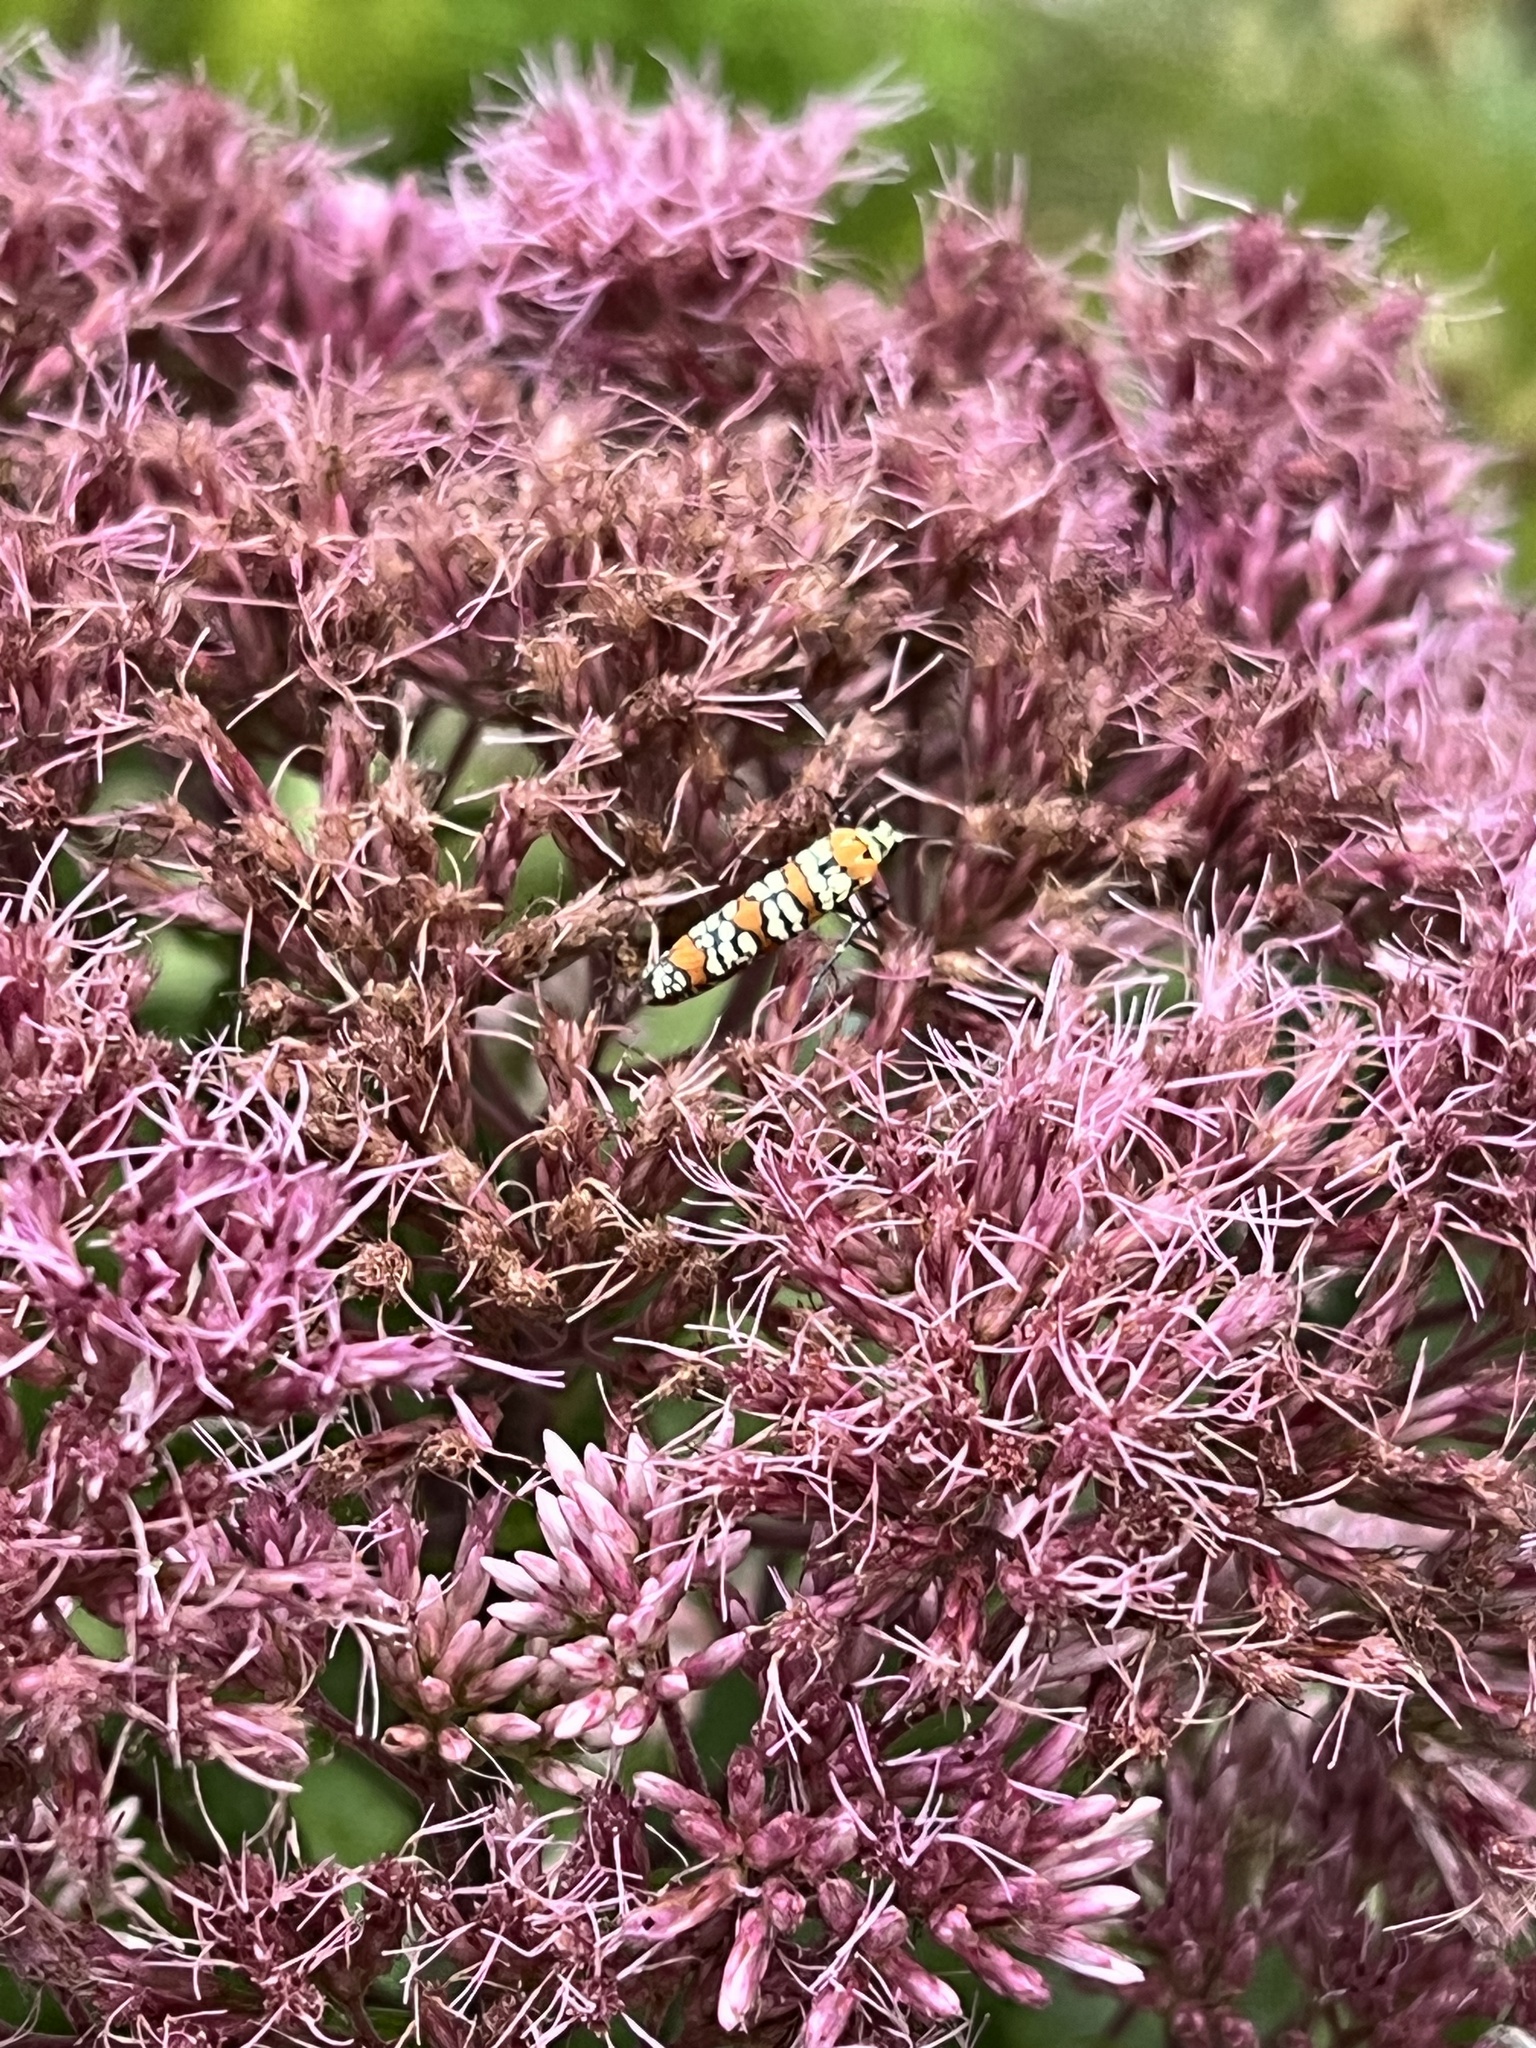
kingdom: Animalia
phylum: Arthropoda
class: Insecta
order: Lepidoptera
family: Attevidae
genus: Atteva
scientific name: Atteva punctella
